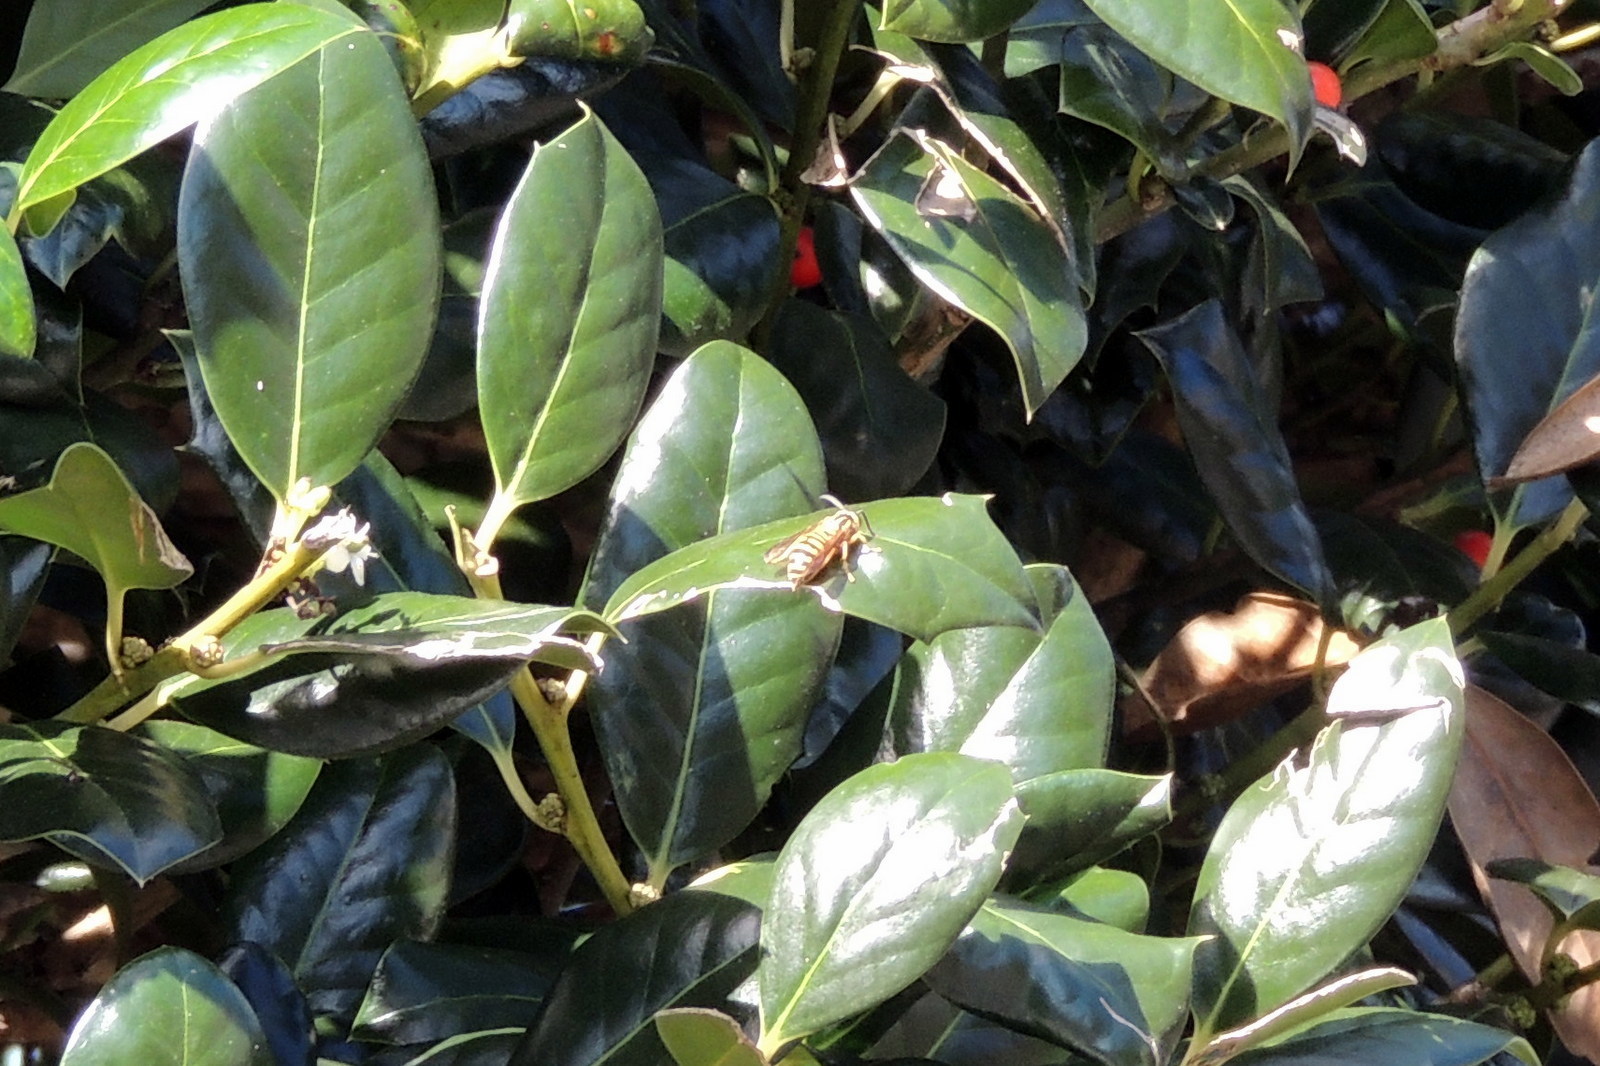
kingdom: Animalia
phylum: Arthropoda
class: Insecta
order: Hymenoptera
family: Vespidae
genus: Vespula
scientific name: Vespula squamosa
